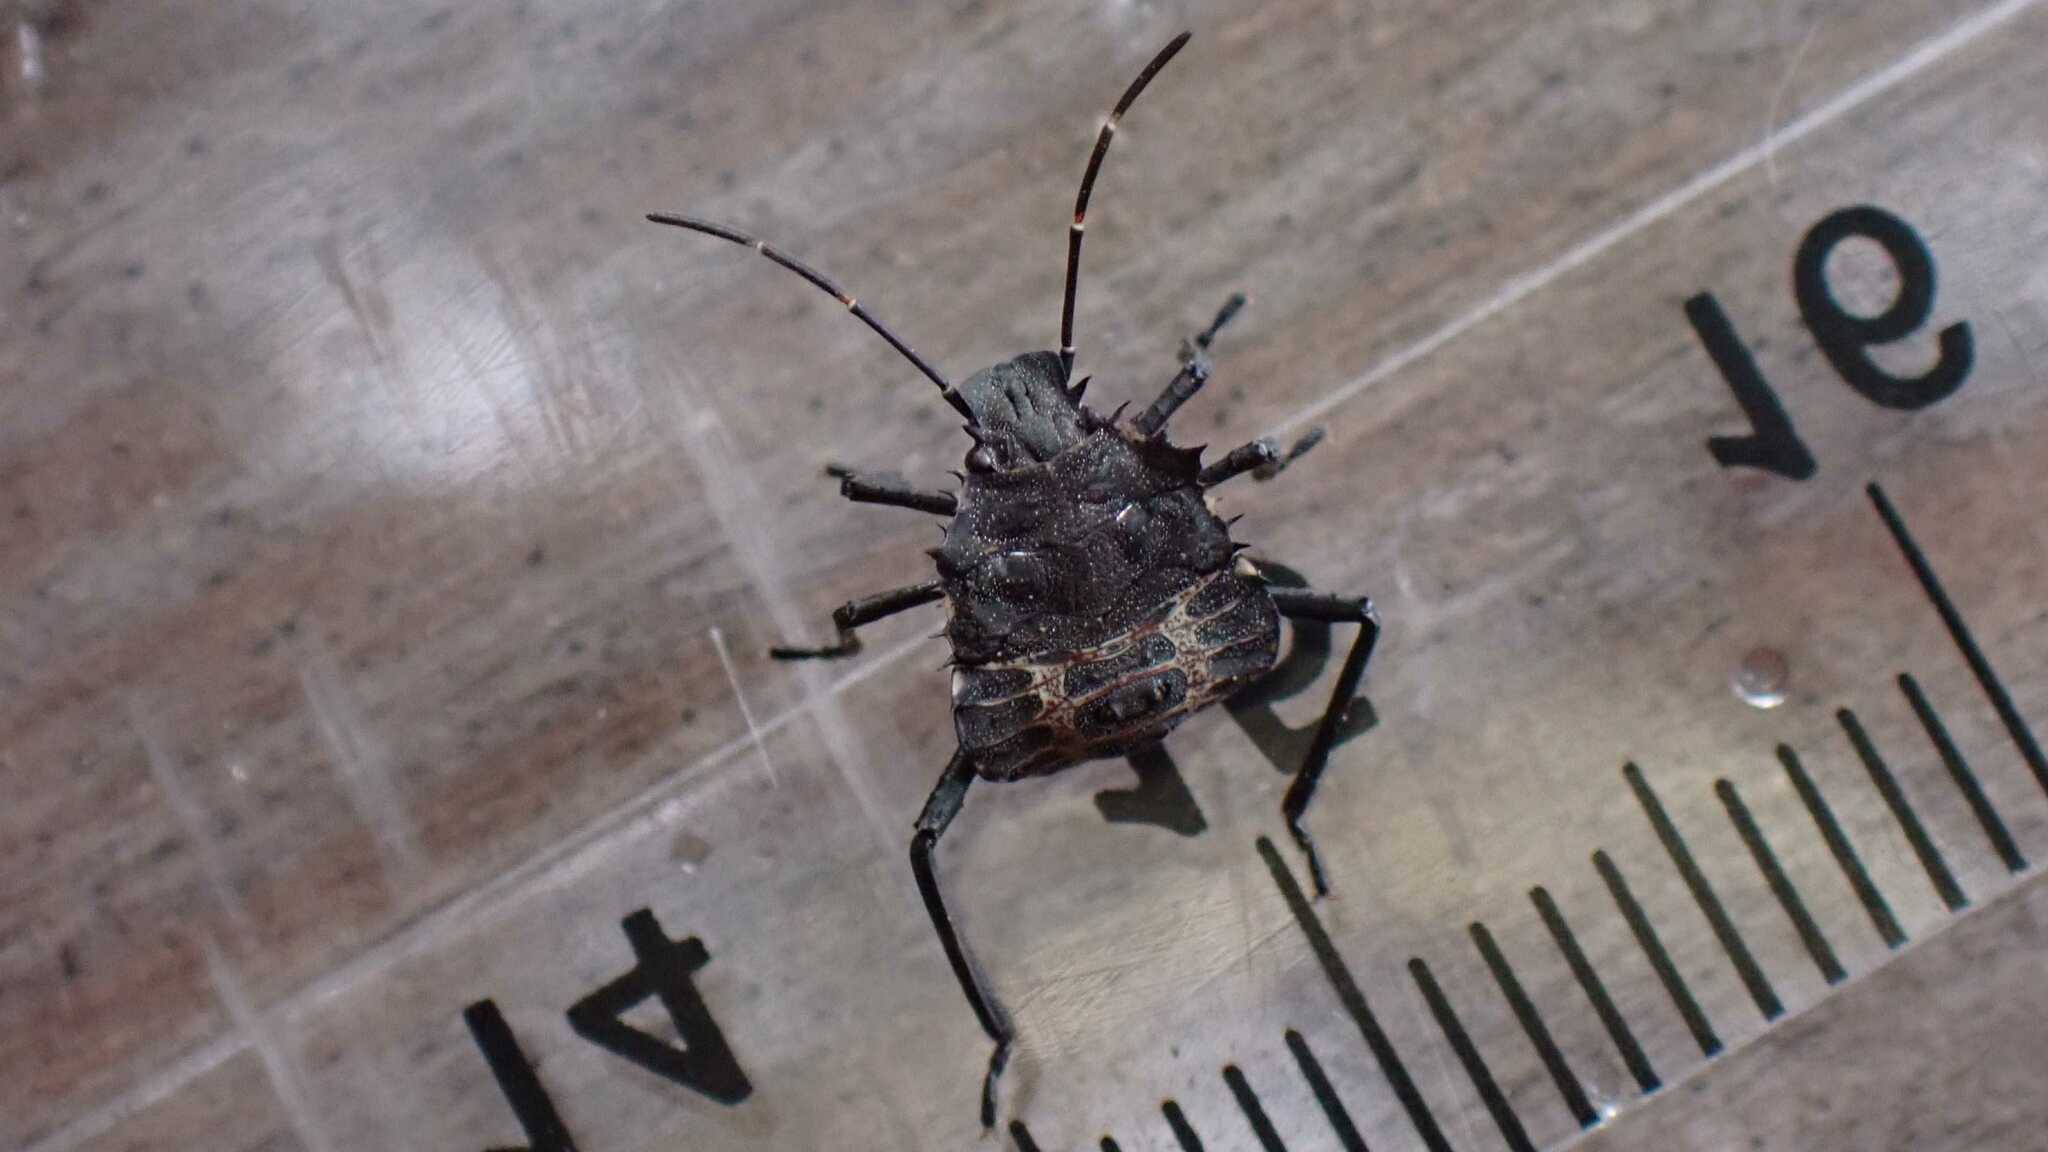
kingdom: Animalia
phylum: Arthropoda
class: Insecta
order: Hemiptera
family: Pentatomidae
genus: Halyomorpha
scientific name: Halyomorpha halys
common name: Brown marmorated stink bug
